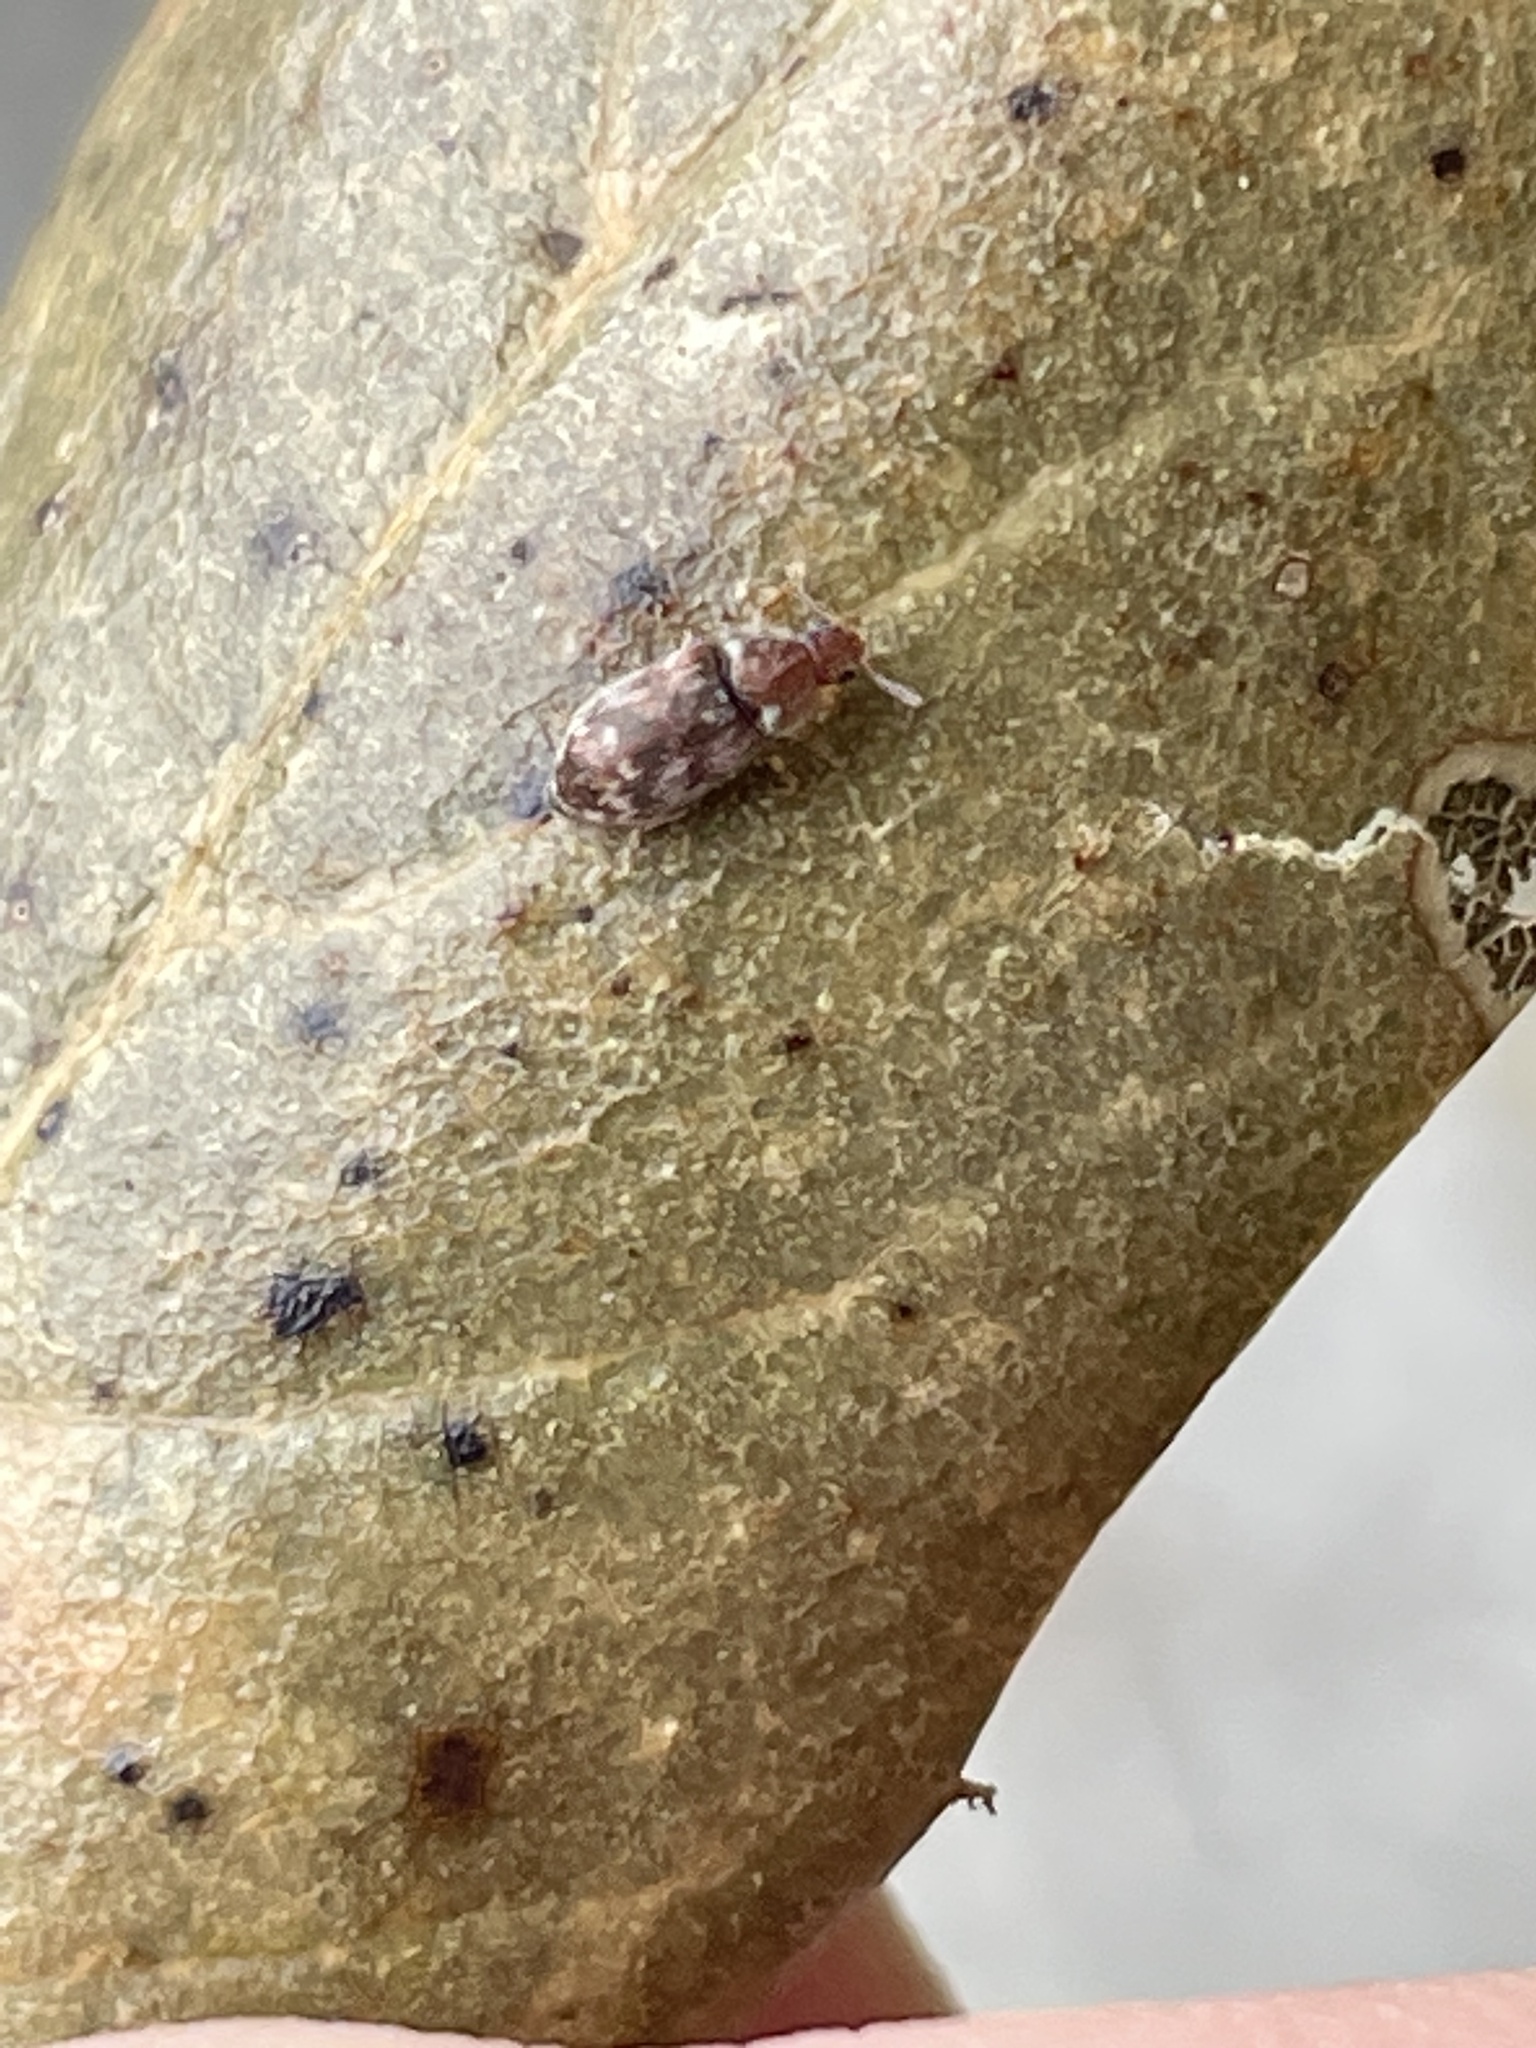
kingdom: Animalia
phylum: Arthropoda
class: Insecta
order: Coleoptera
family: Byturidae
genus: Xerasia
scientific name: Xerasia grisescens
